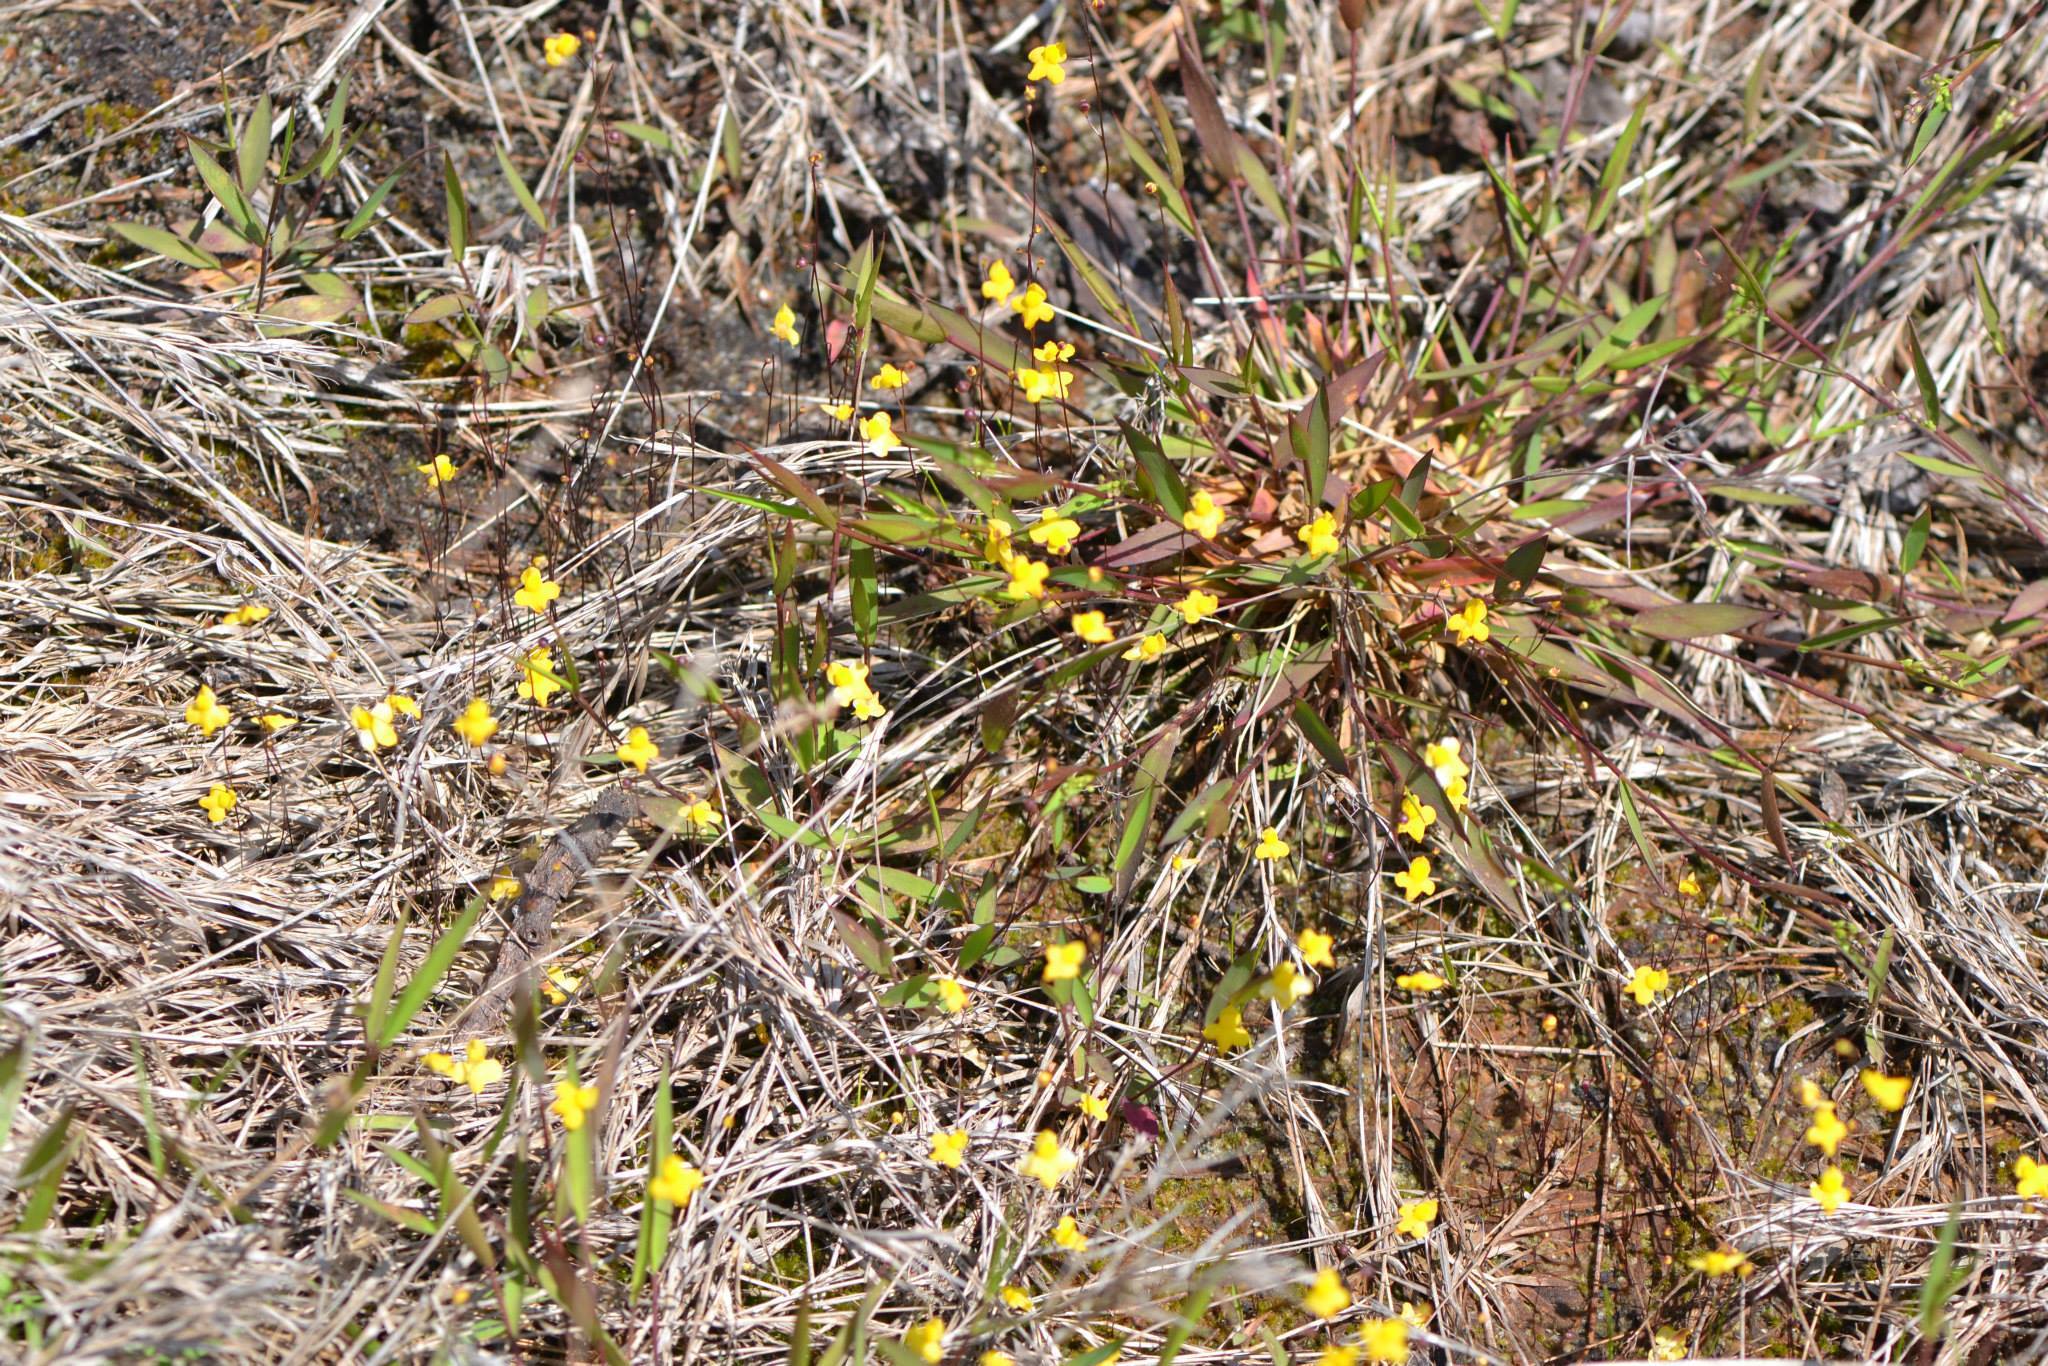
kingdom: Plantae
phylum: Tracheophyta
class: Magnoliopsida
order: Lamiales
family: Lentibulariaceae
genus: Utricularia
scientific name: Utricularia subulata
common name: Tiny bladderwort
